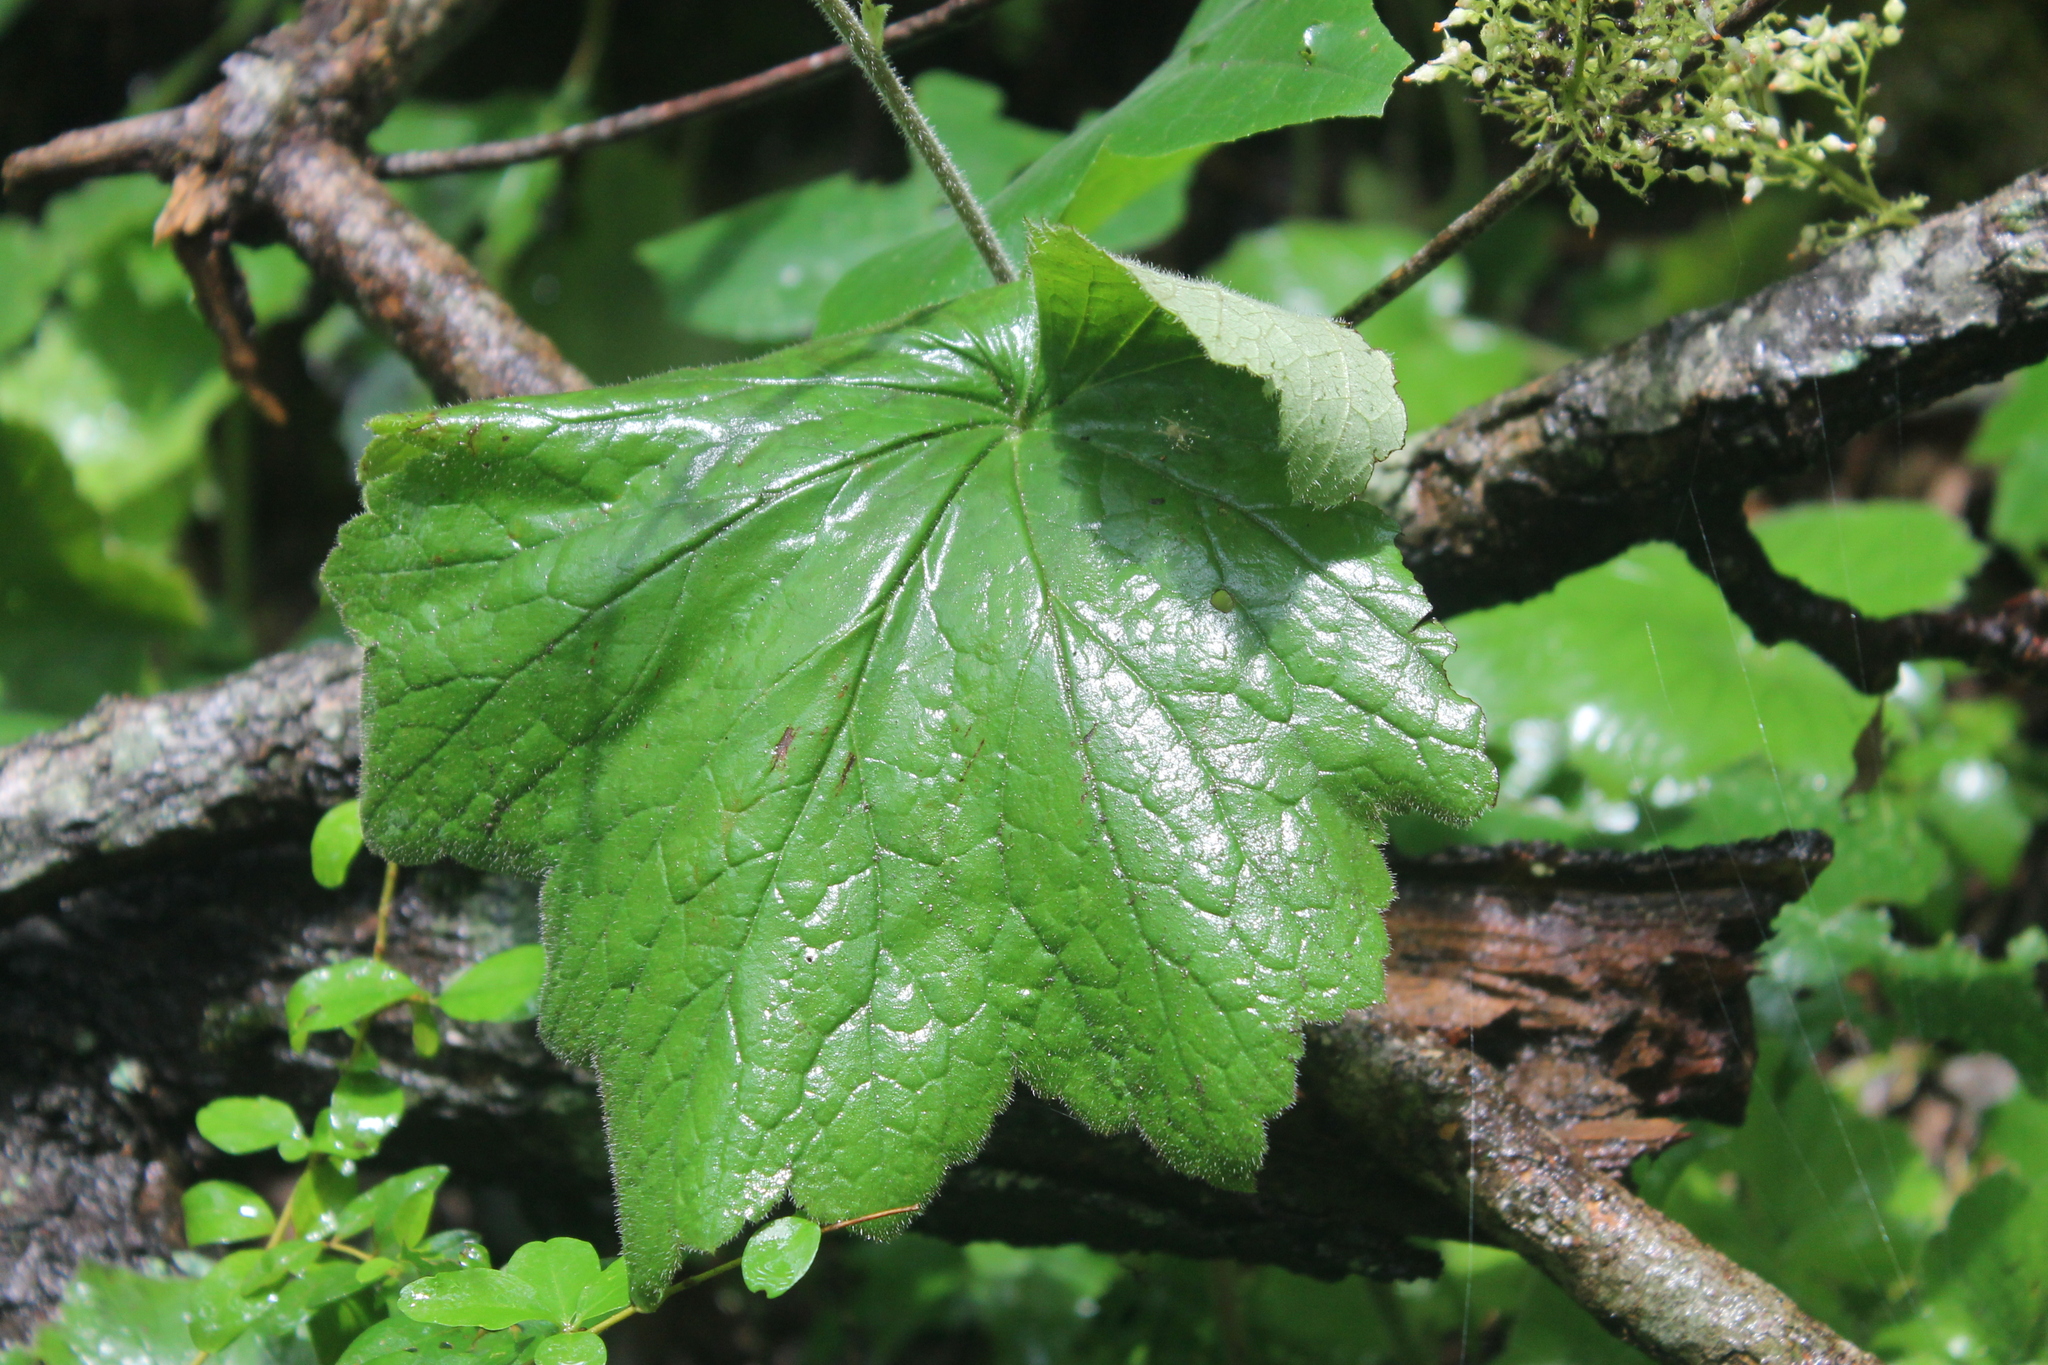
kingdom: Plantae
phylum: Tracheophyta
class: Magnoliopsida
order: Saxifragales
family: Saxifragaceae
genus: Heuchera
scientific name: Heuchera villosa
